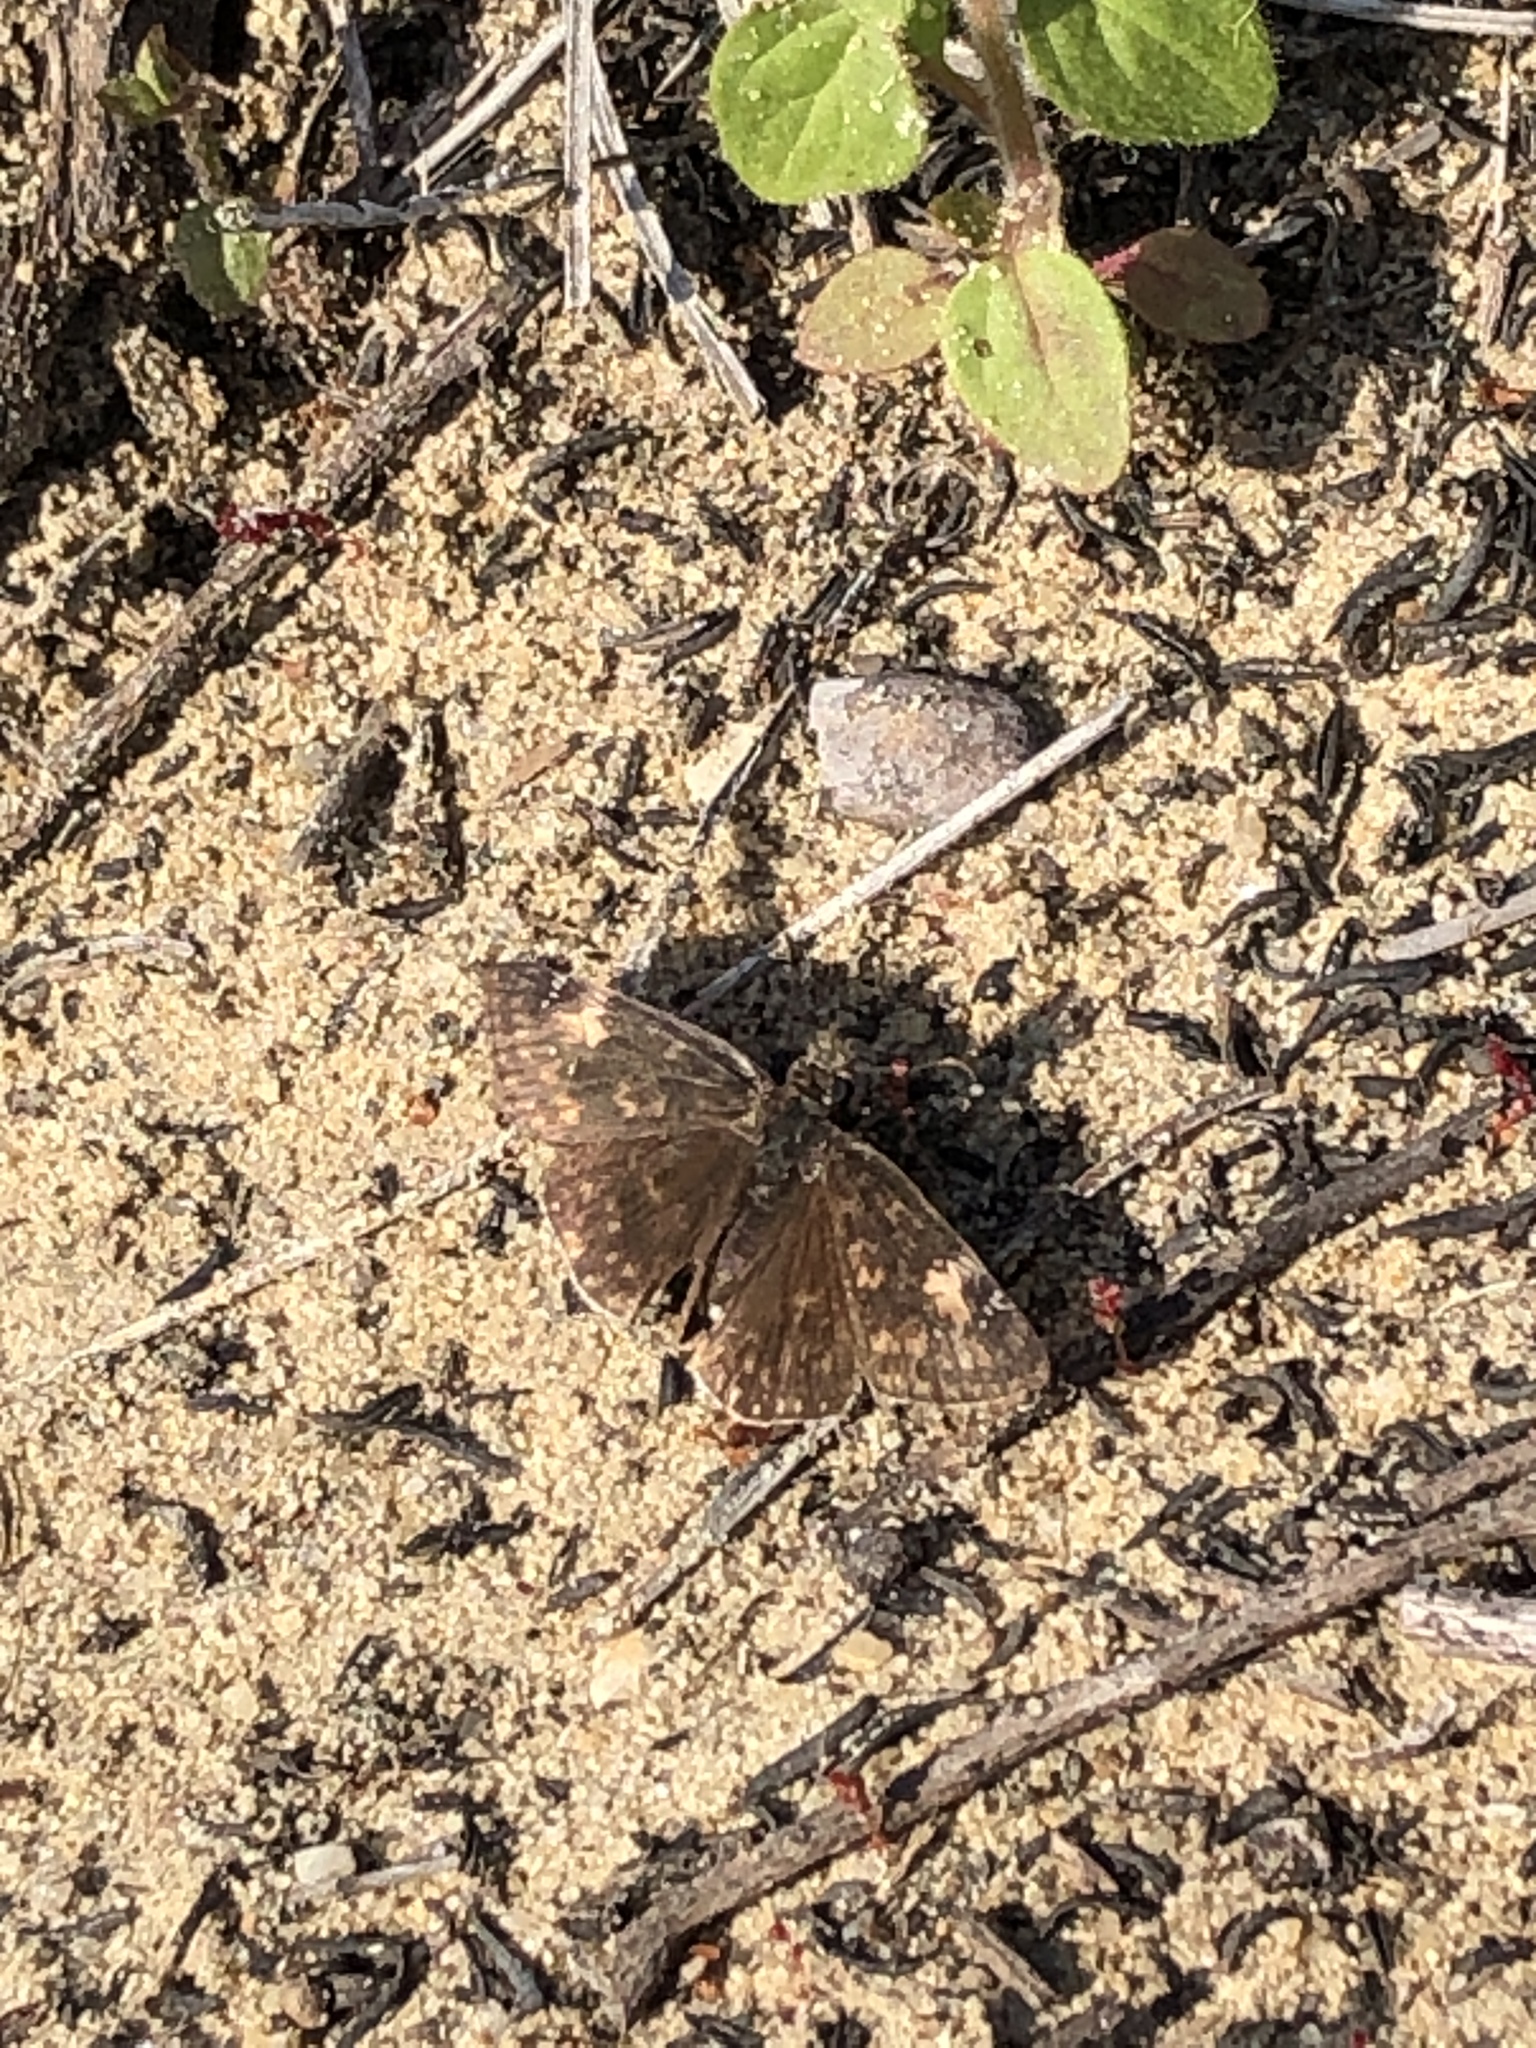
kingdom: Animalia
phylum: Arthropoda
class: Insecta
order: Lepidoptera
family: Hesperiidae
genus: Erynnis
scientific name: Erynnis funeralis
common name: Funereal duskywing
